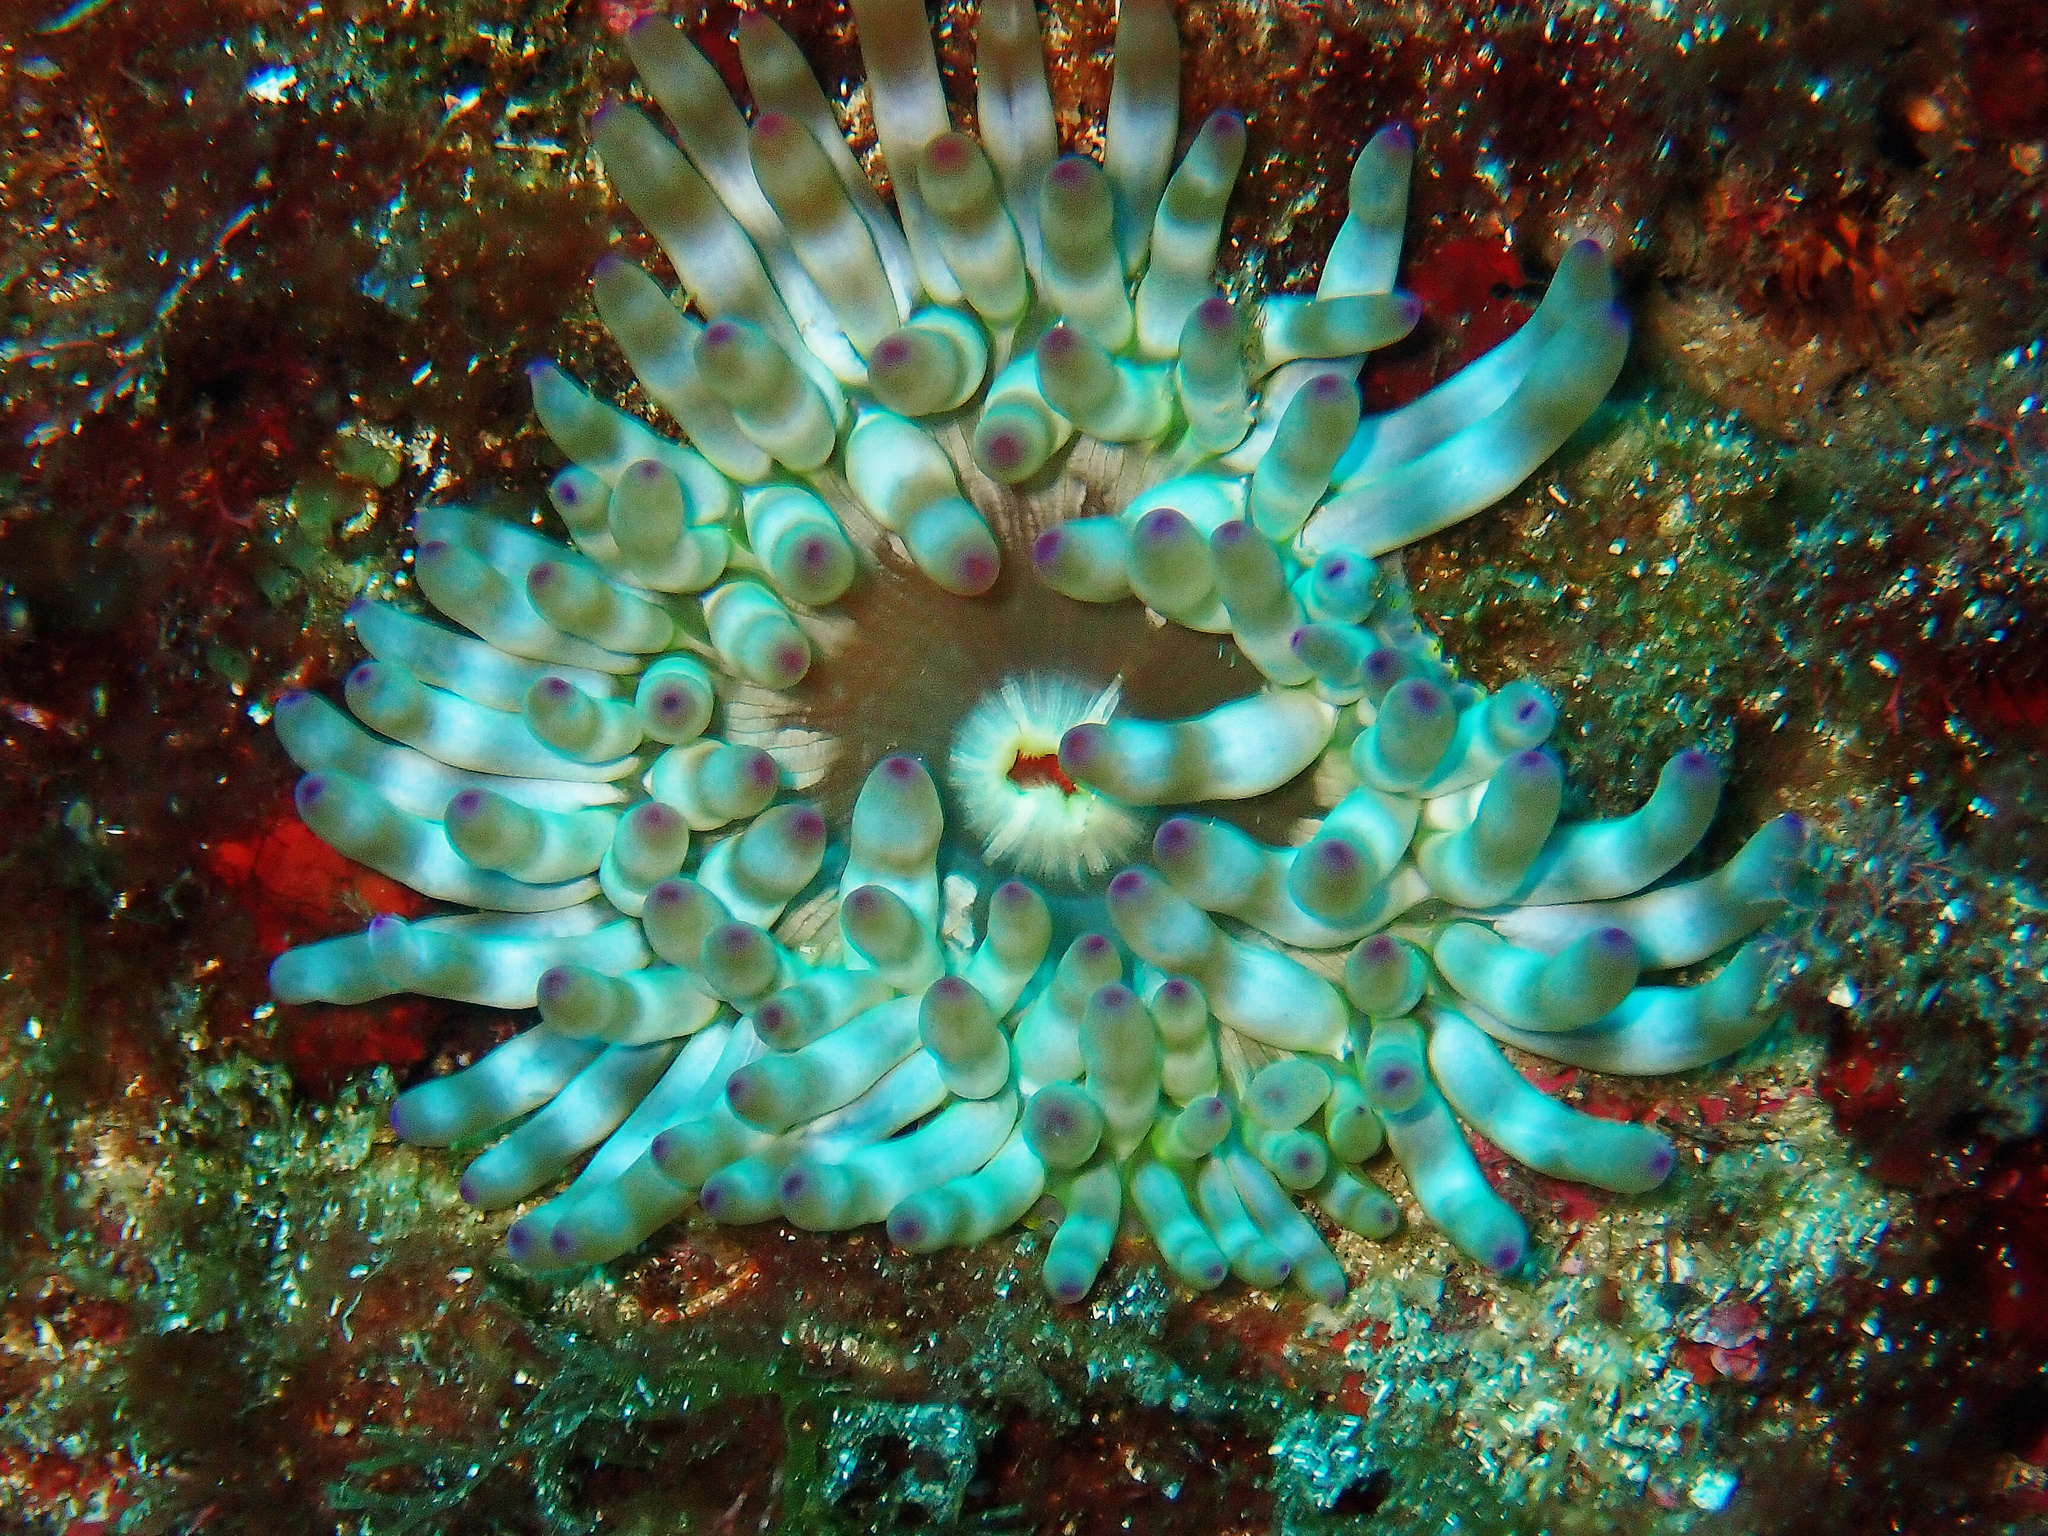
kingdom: Animalia
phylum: Cnidaria
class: Anthozoa
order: Actiniaria
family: Actiniidae
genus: Cribrinopsis
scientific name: Cribrinopsis crassa
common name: Fat anemone
